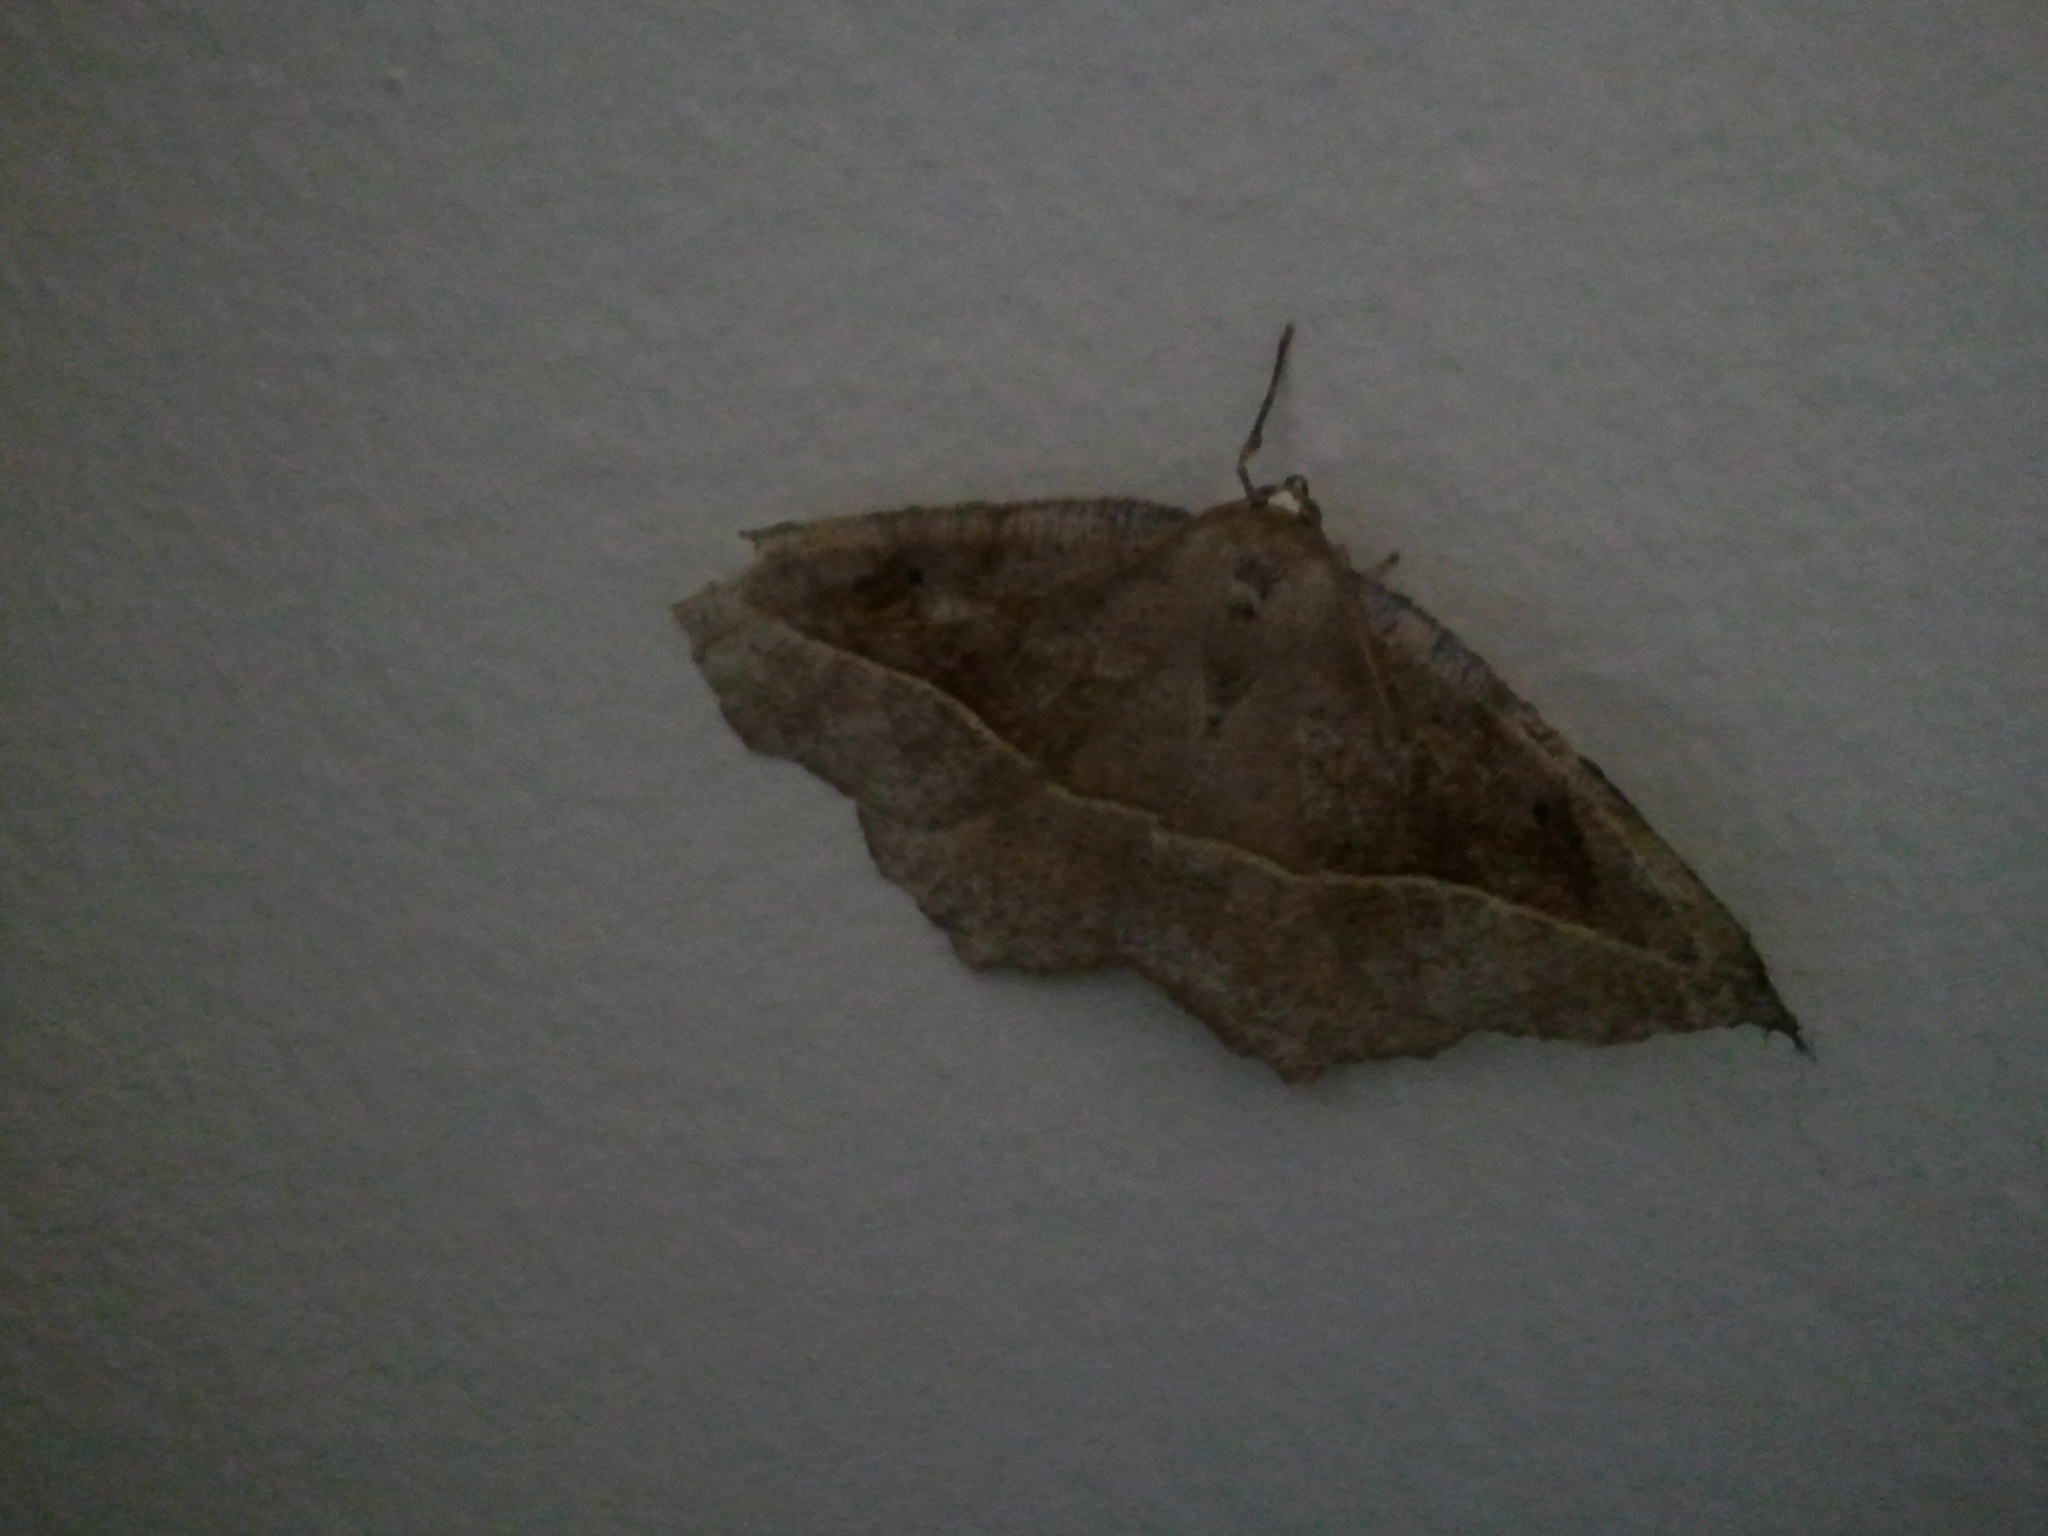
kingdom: Animalia
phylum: Arthropoda
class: Insecta
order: Lepidoptera
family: Geometridae
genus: Eutrapela
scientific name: Eutrapela clemataria
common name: Curved-toothed geometer
